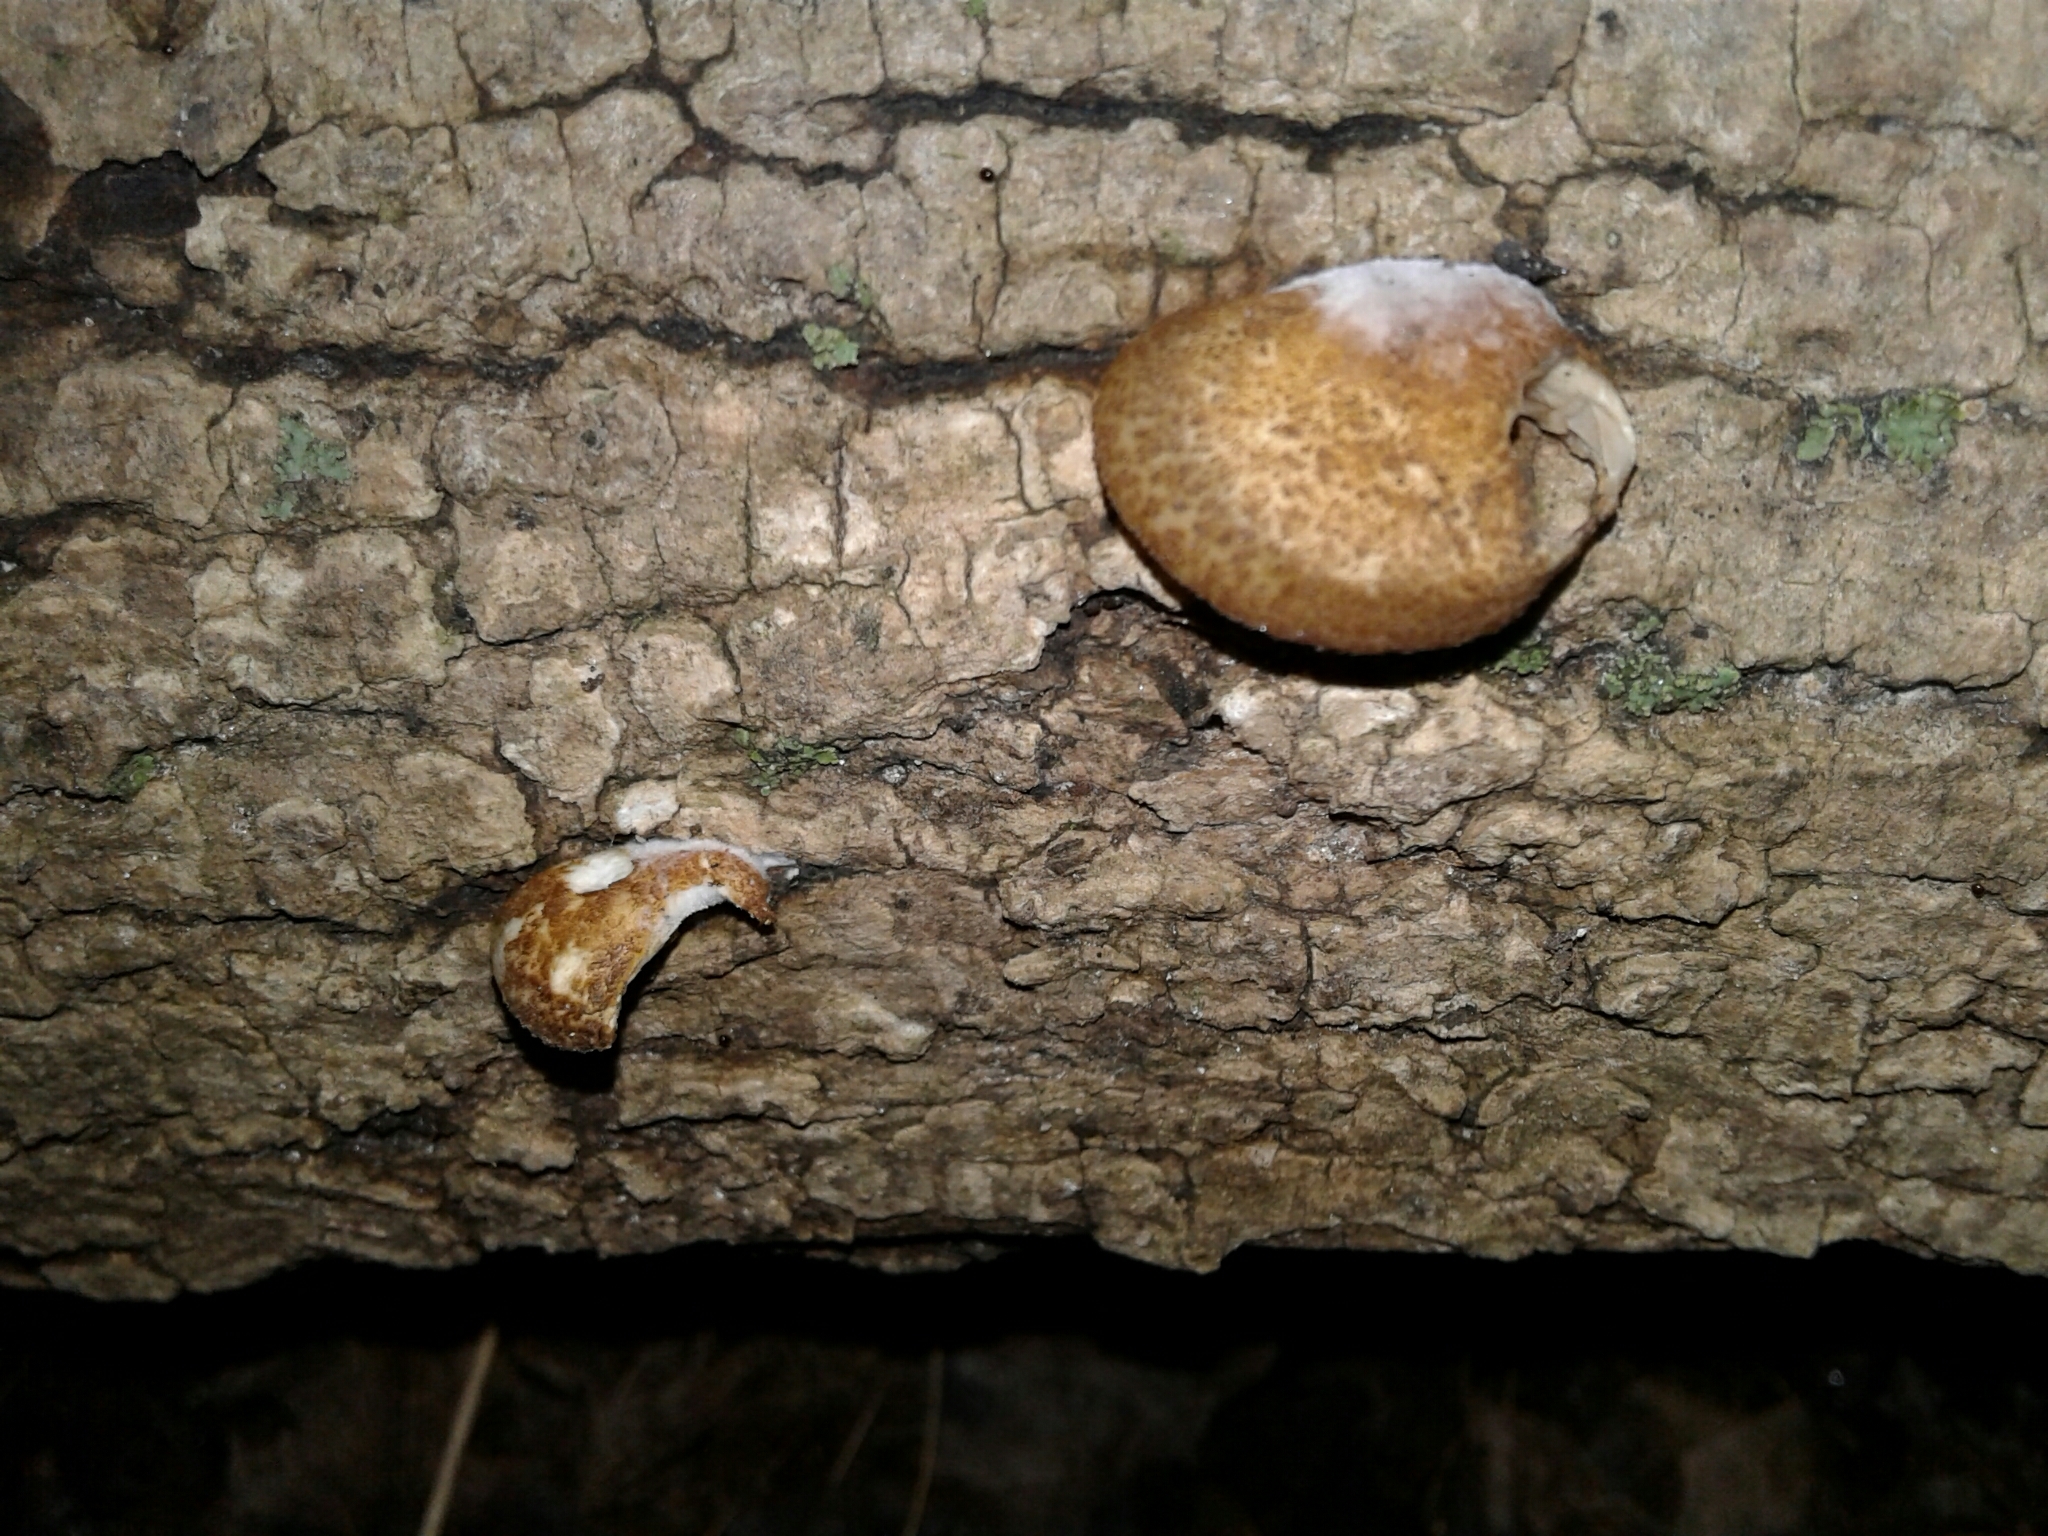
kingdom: Fungi
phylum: Basidiomycota
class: Agaricomycetes
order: Agaricales
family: Crepidotaceae
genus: Crepidotus
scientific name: Crepidotus mollis
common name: Peeling oysterling
